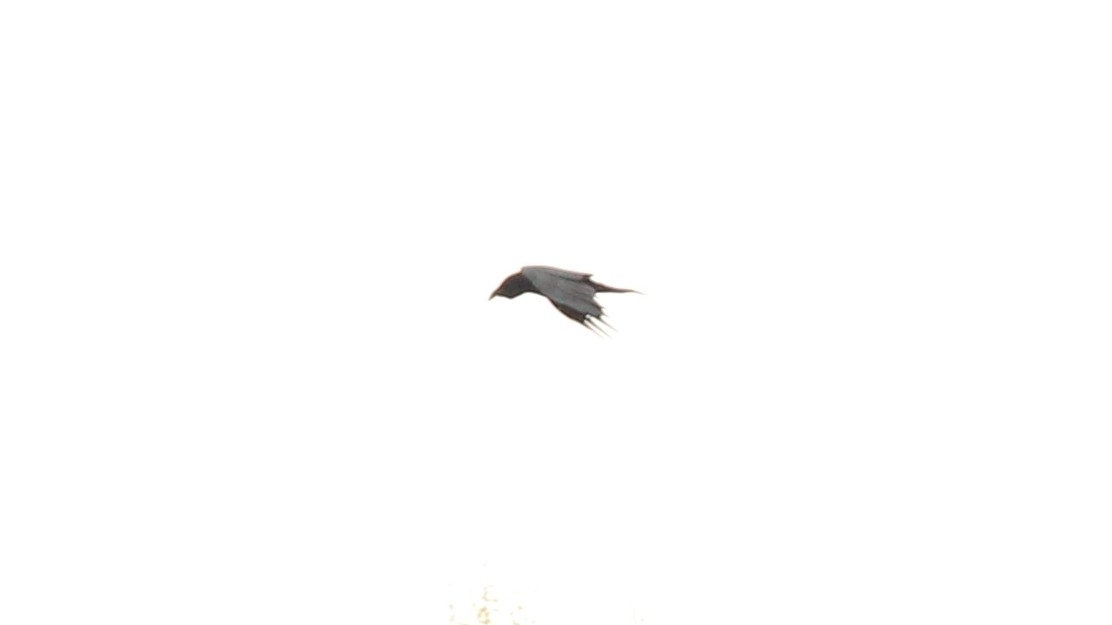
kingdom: Animalia
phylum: Chordata
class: Aves
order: Passeriformes
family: Corvidae
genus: Corvus
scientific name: Corvus corax
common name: Common raven
